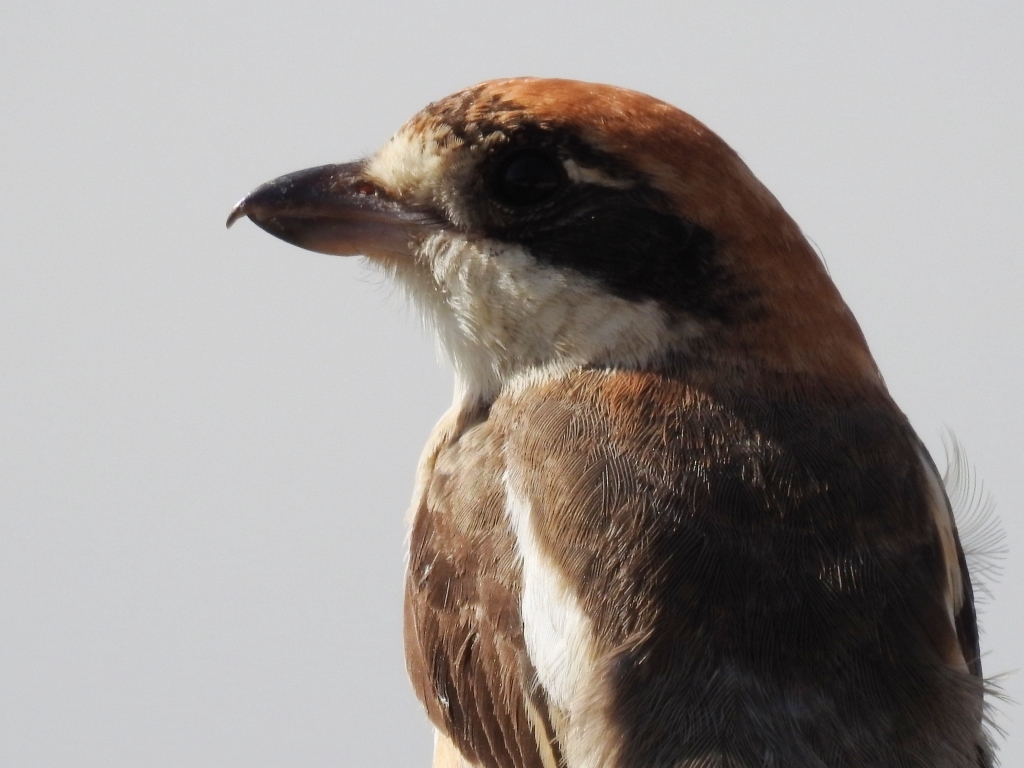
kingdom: Animalia
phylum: Chordata
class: Aves
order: Passeriformes
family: Laniidae
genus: Lanius
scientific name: Lanius senator
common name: Woodchat shrike
